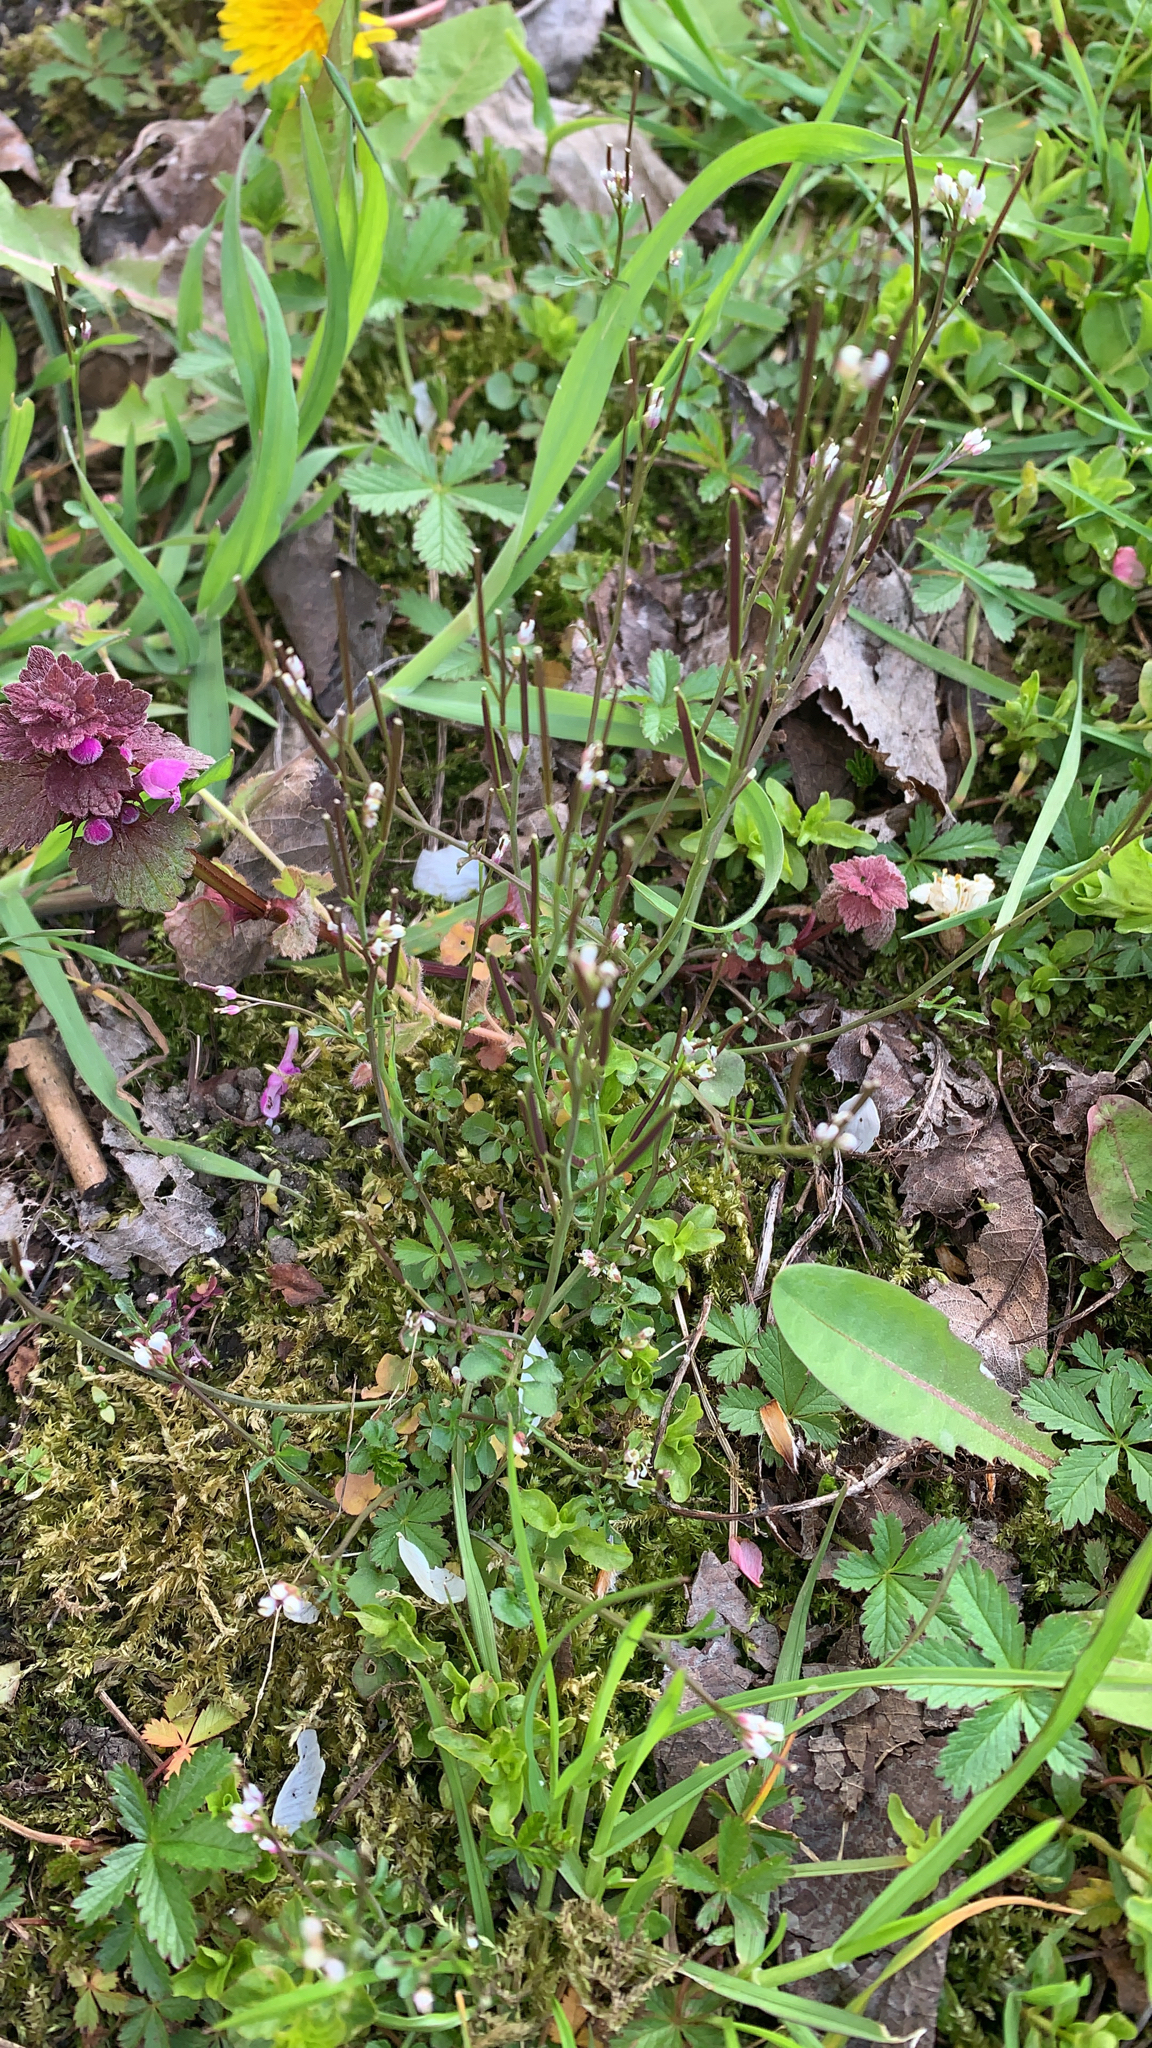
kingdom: Plantae
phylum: Tracheophyta
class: Magnoliopsida
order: Brassicales
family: Brassicaceae
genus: Cardamine
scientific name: Cardamine hirsuta
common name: Hairy bittercress
